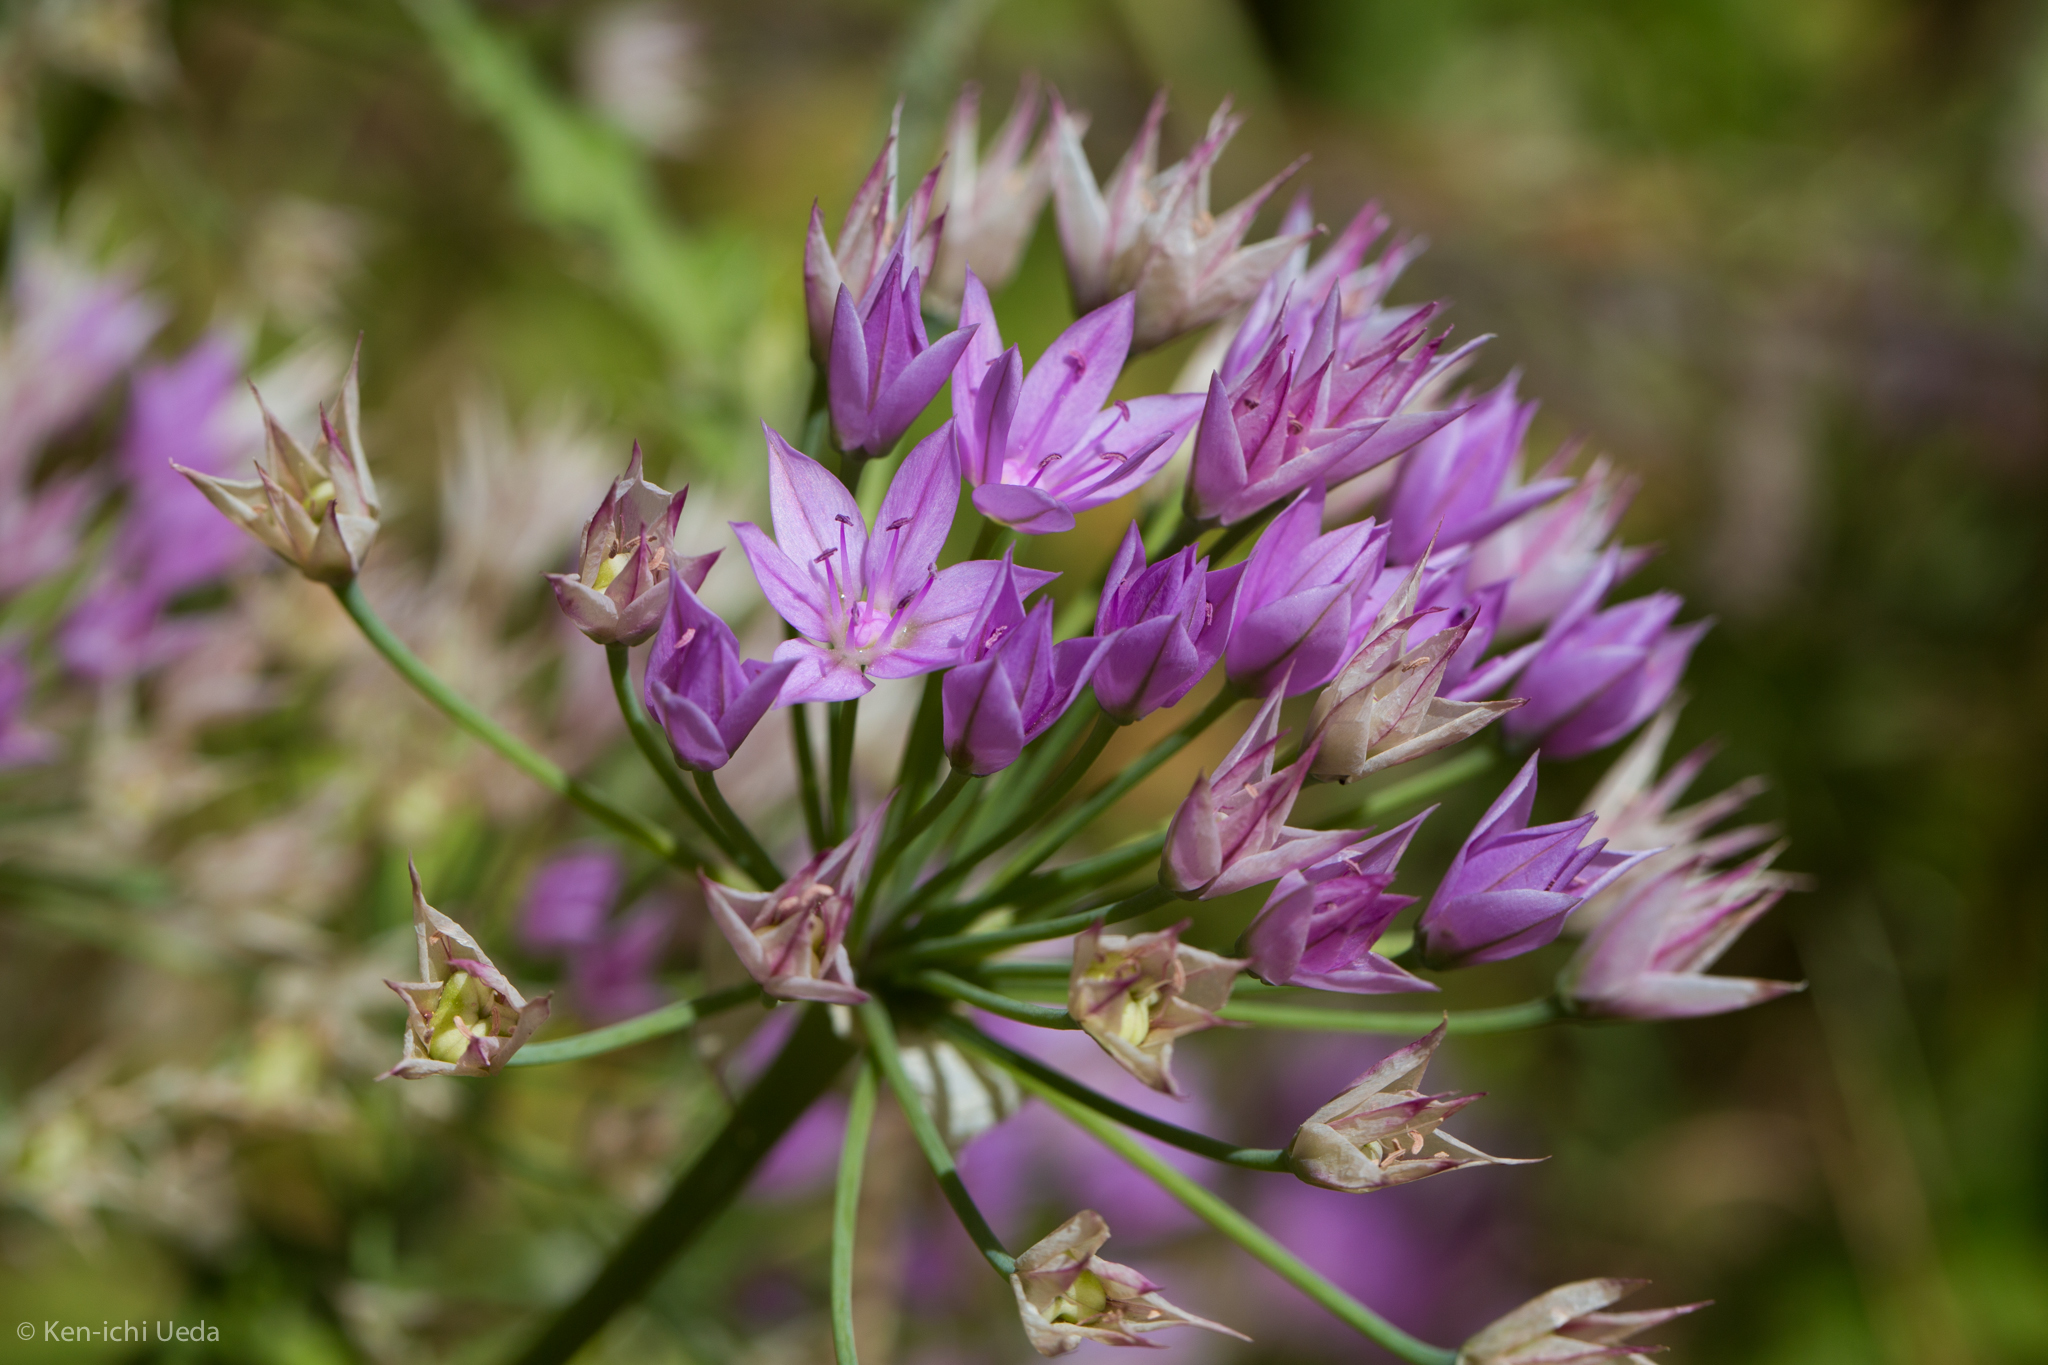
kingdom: Plantae
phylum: Tracheophyta
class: Liliopsida
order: Asparagales
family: Amaryllidaceae
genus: Allium
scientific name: Allium unifolium
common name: American garlic
